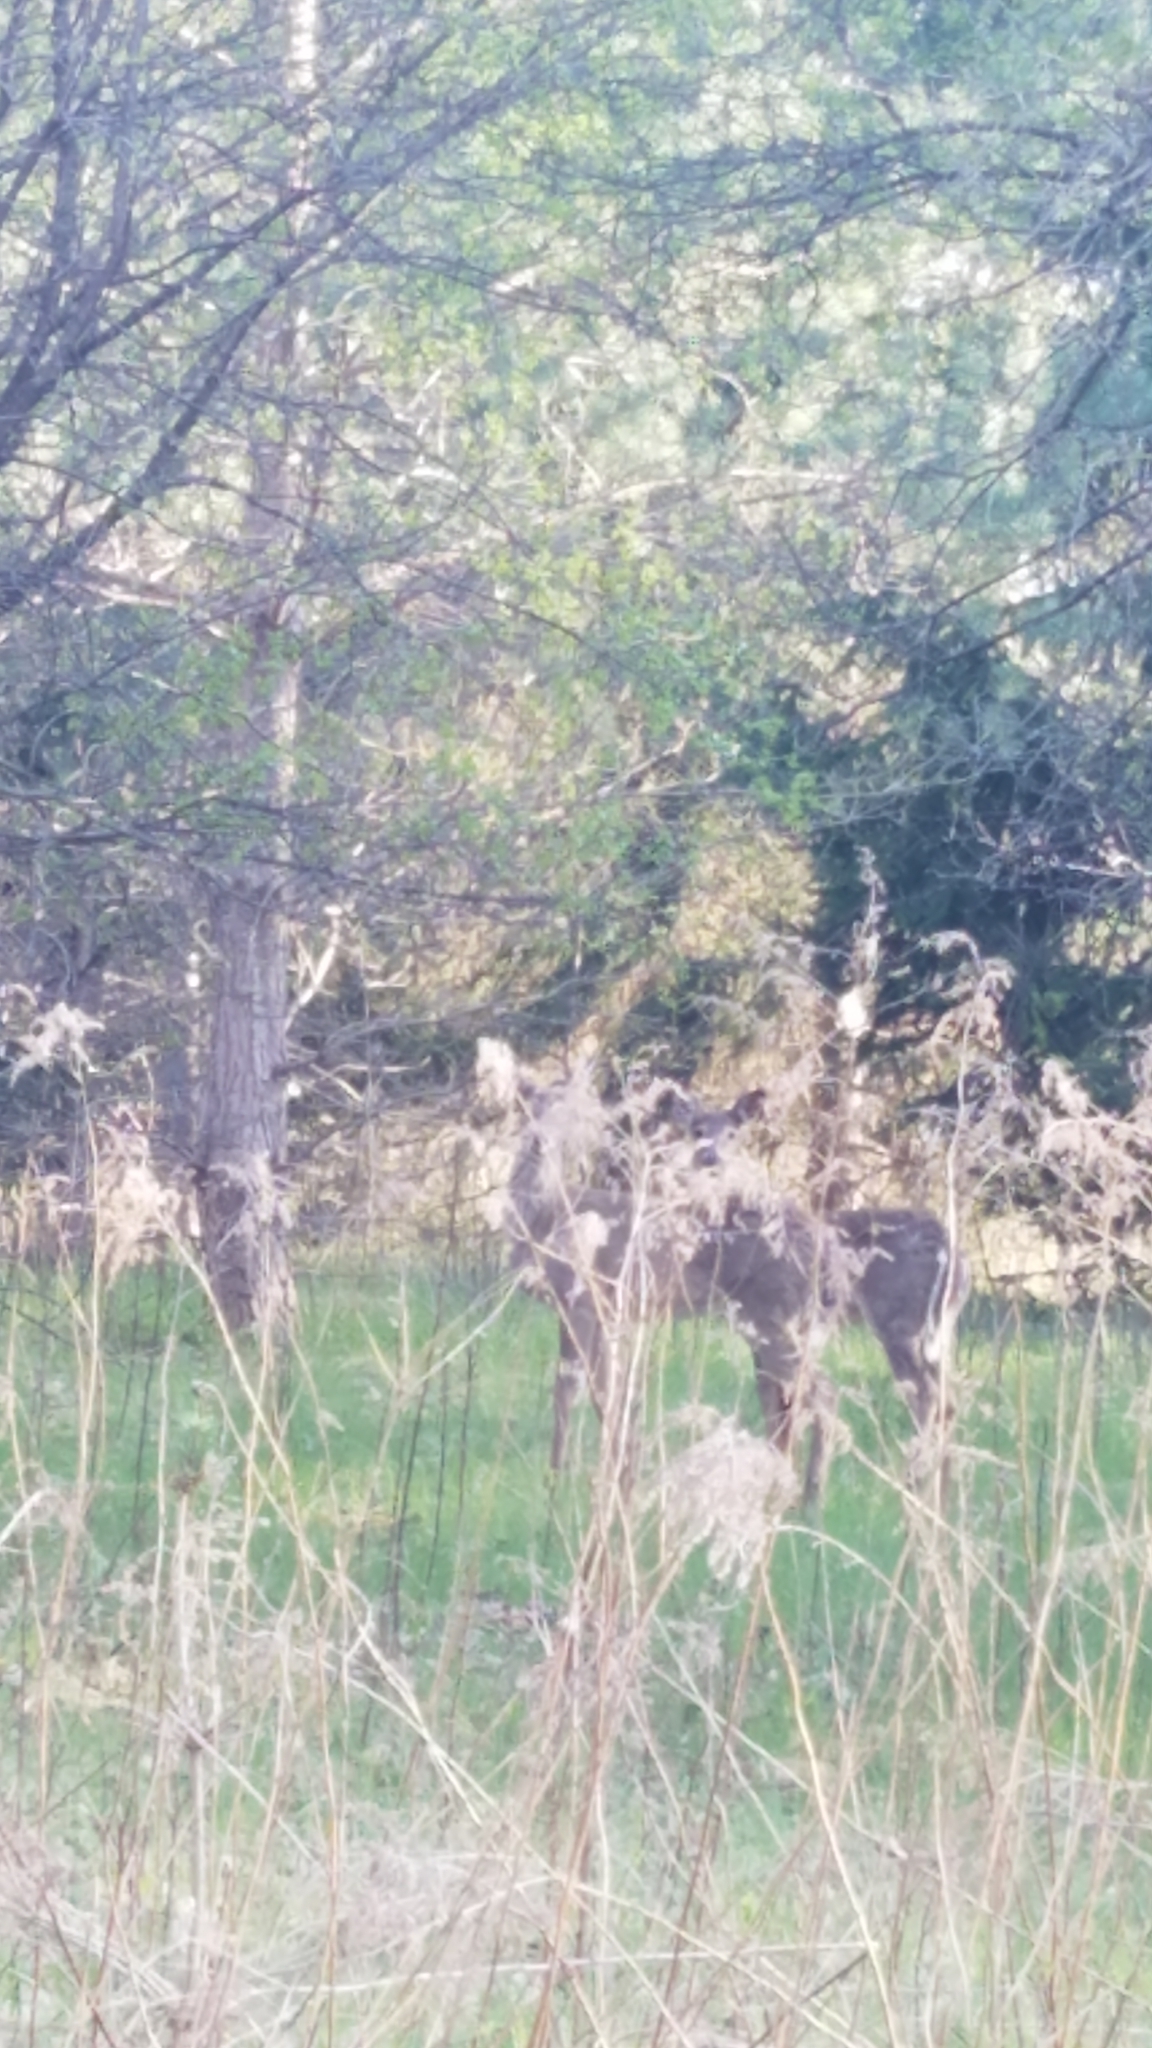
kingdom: Animalia
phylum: Chordata
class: Mammalia
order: Artiodactyla
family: Cervidae
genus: Odocoileus
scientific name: Odocoileus virginianus
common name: White-tailed deer
